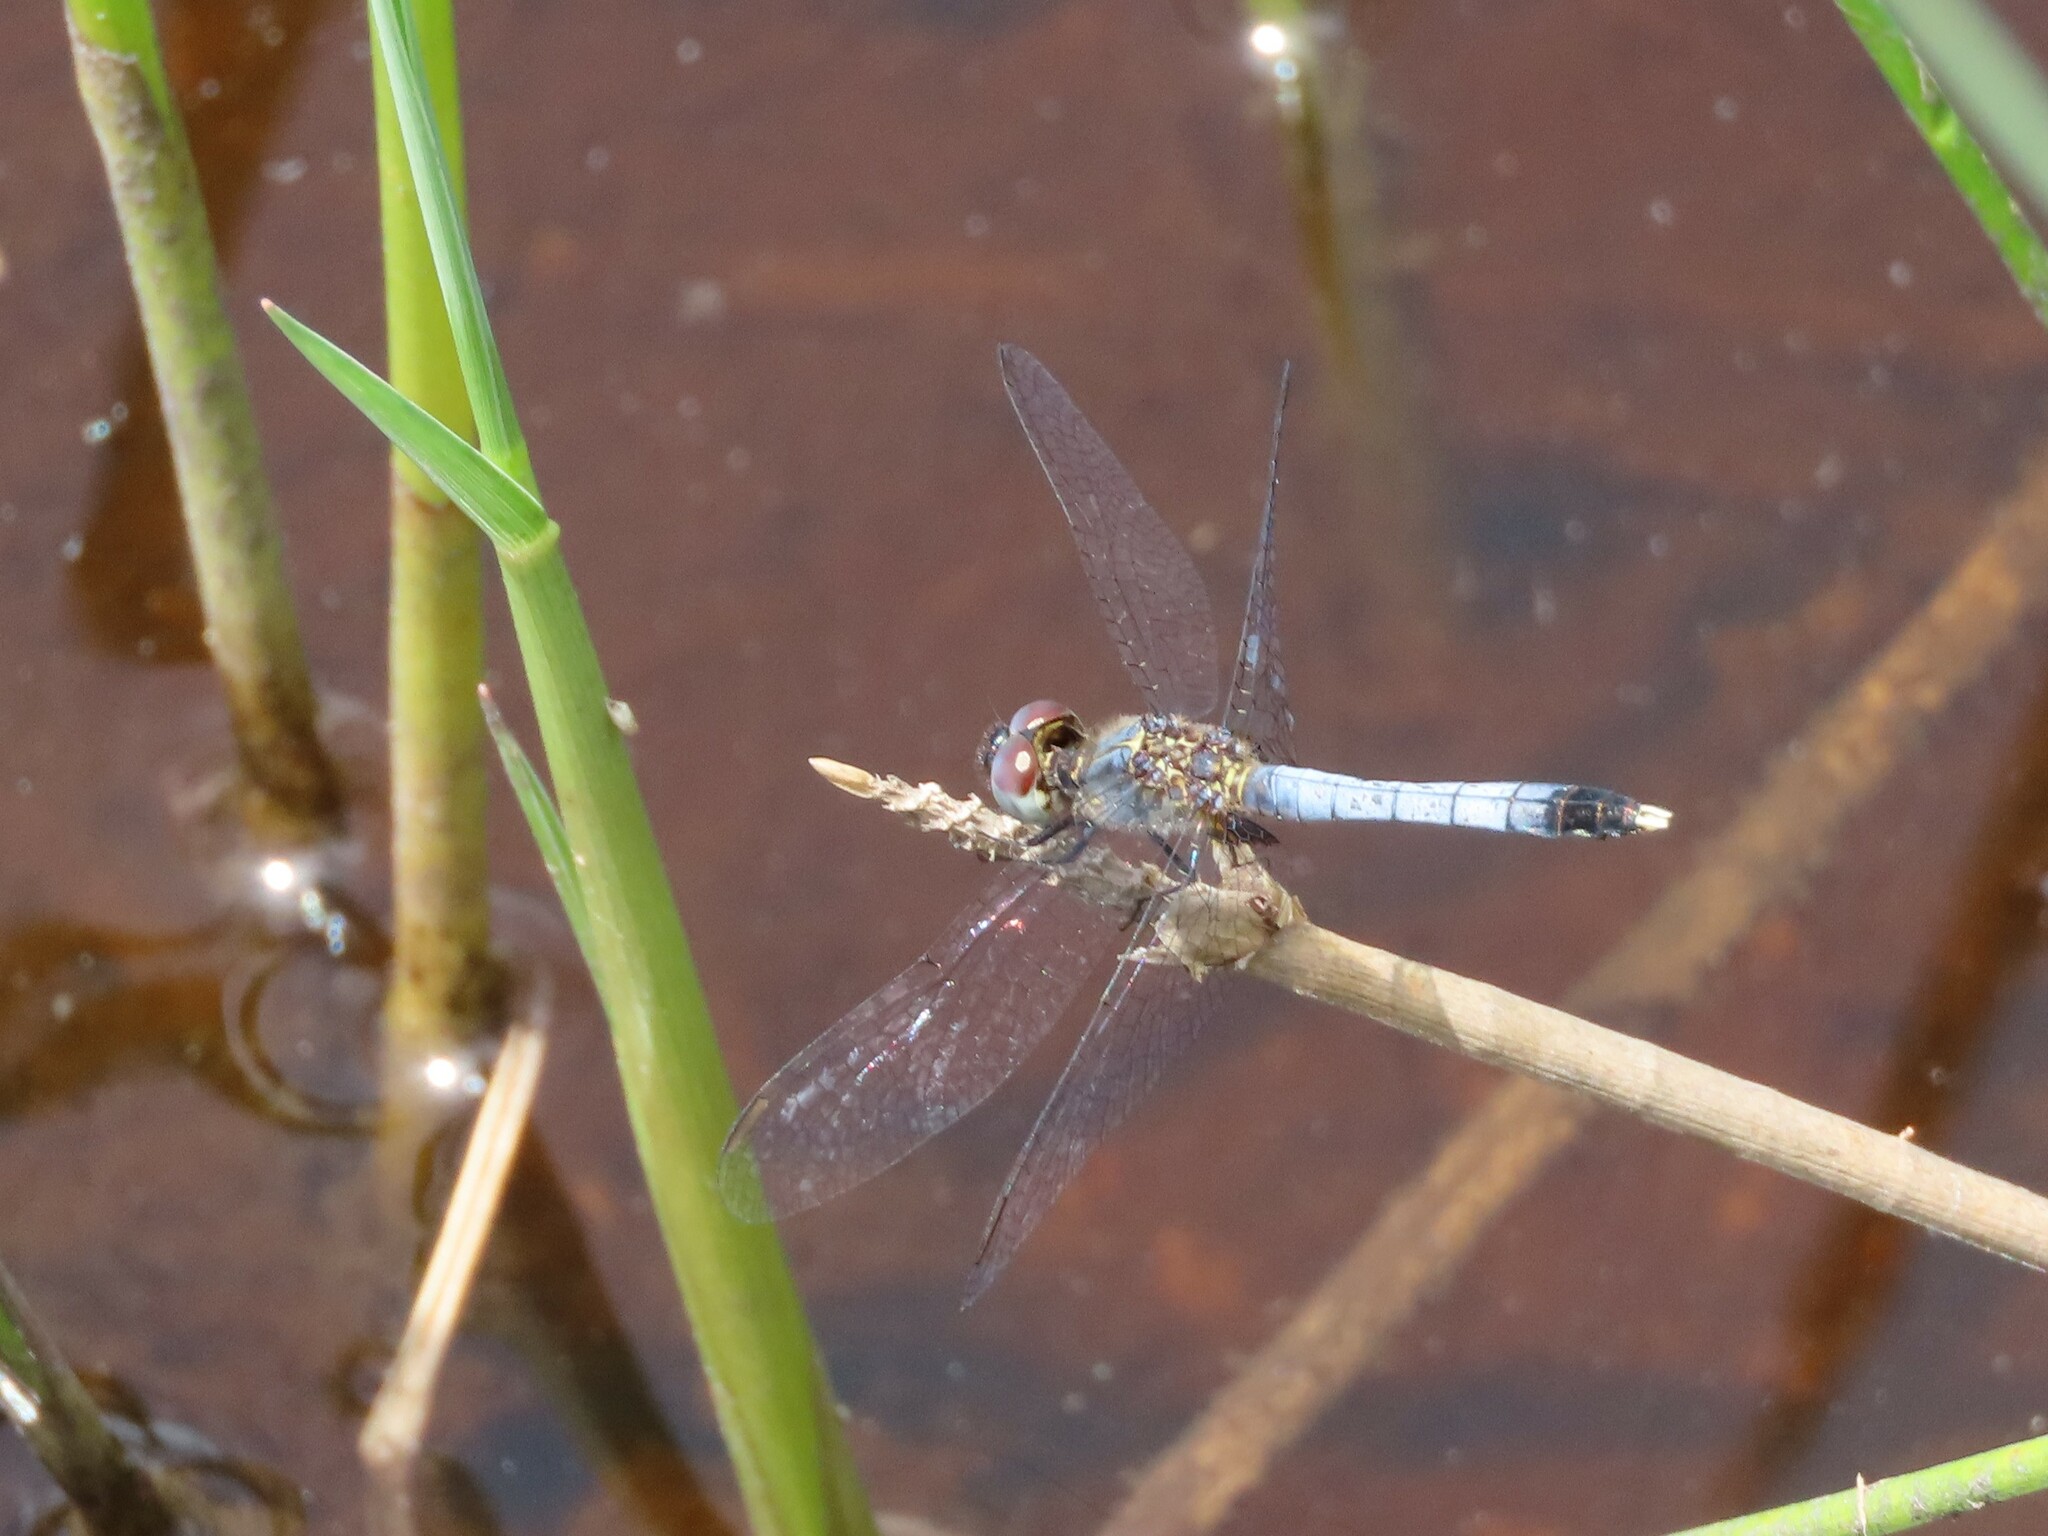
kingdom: Animalia
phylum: Arthropoda
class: Insecta
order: Odonata
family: Libellulidae
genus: Erythrodiplax
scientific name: Erythrodiplax minuscula
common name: Little blue dragonlet
